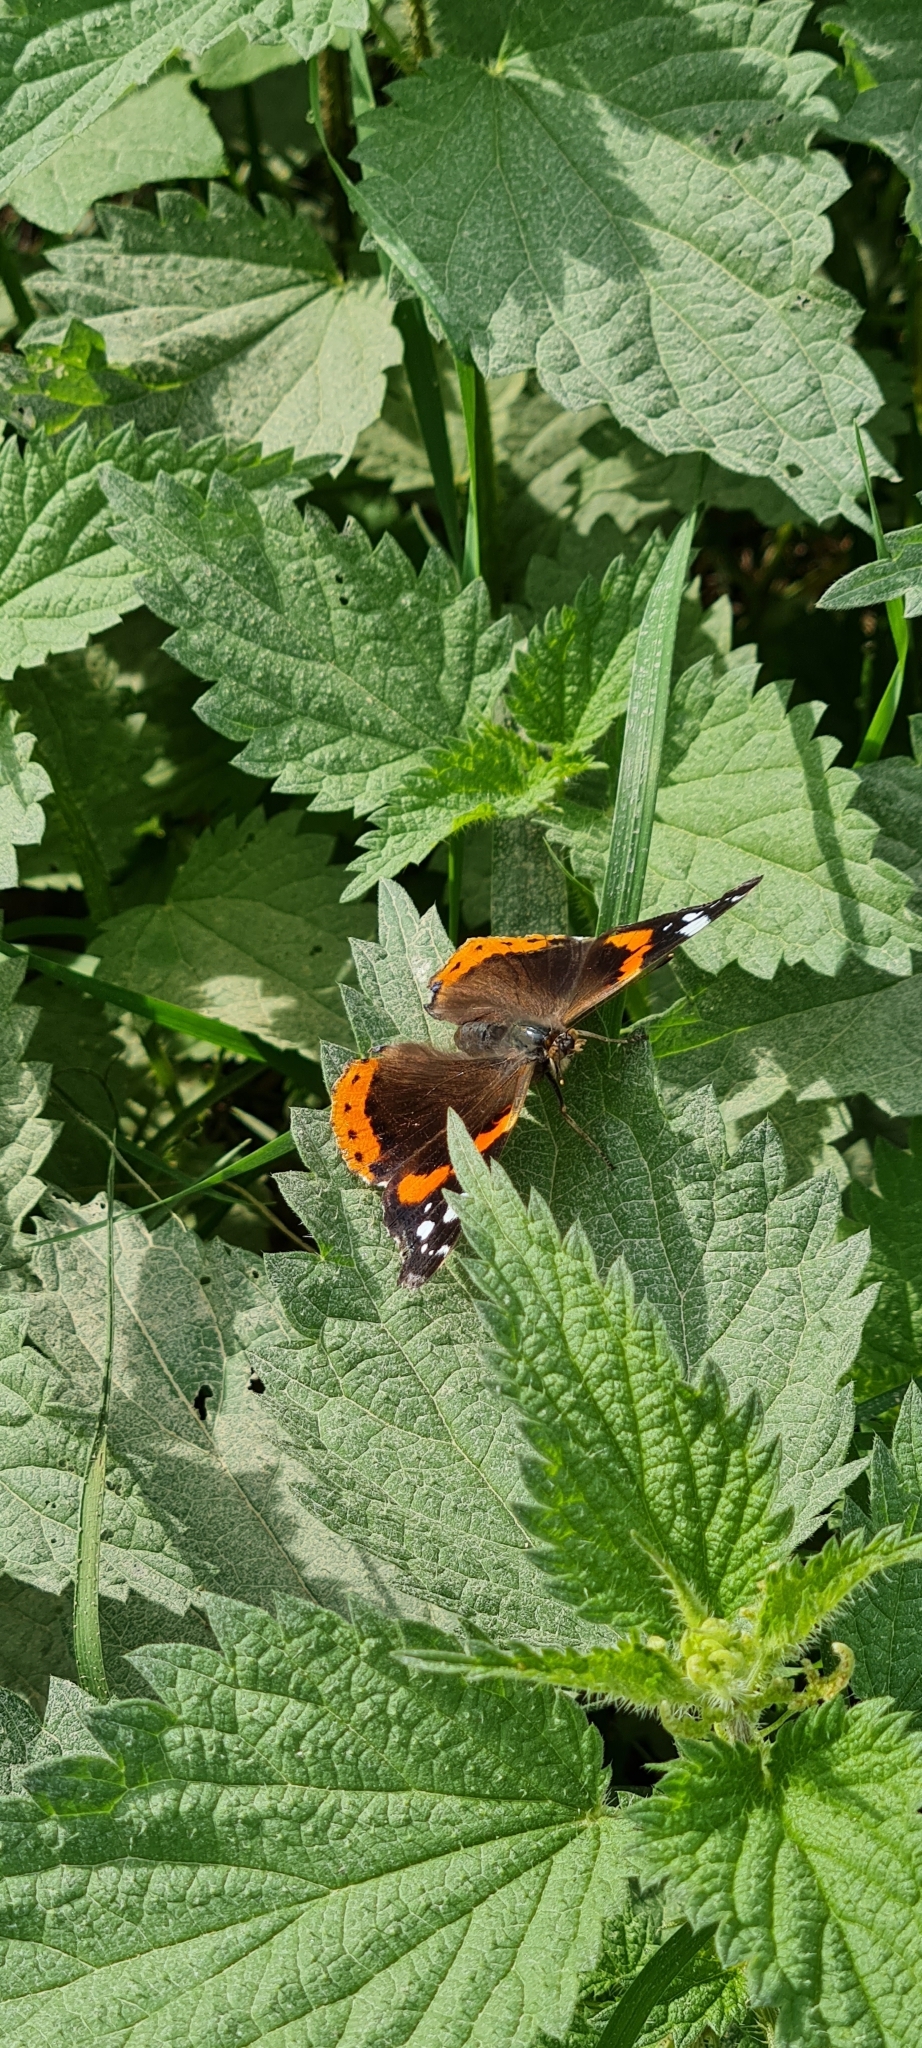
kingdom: Animalia
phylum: Arthropoda
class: Insecta
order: Lepidoptera
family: Nymphalidae
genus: Vanessa
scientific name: Vanessa atalanta
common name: Red admiral
